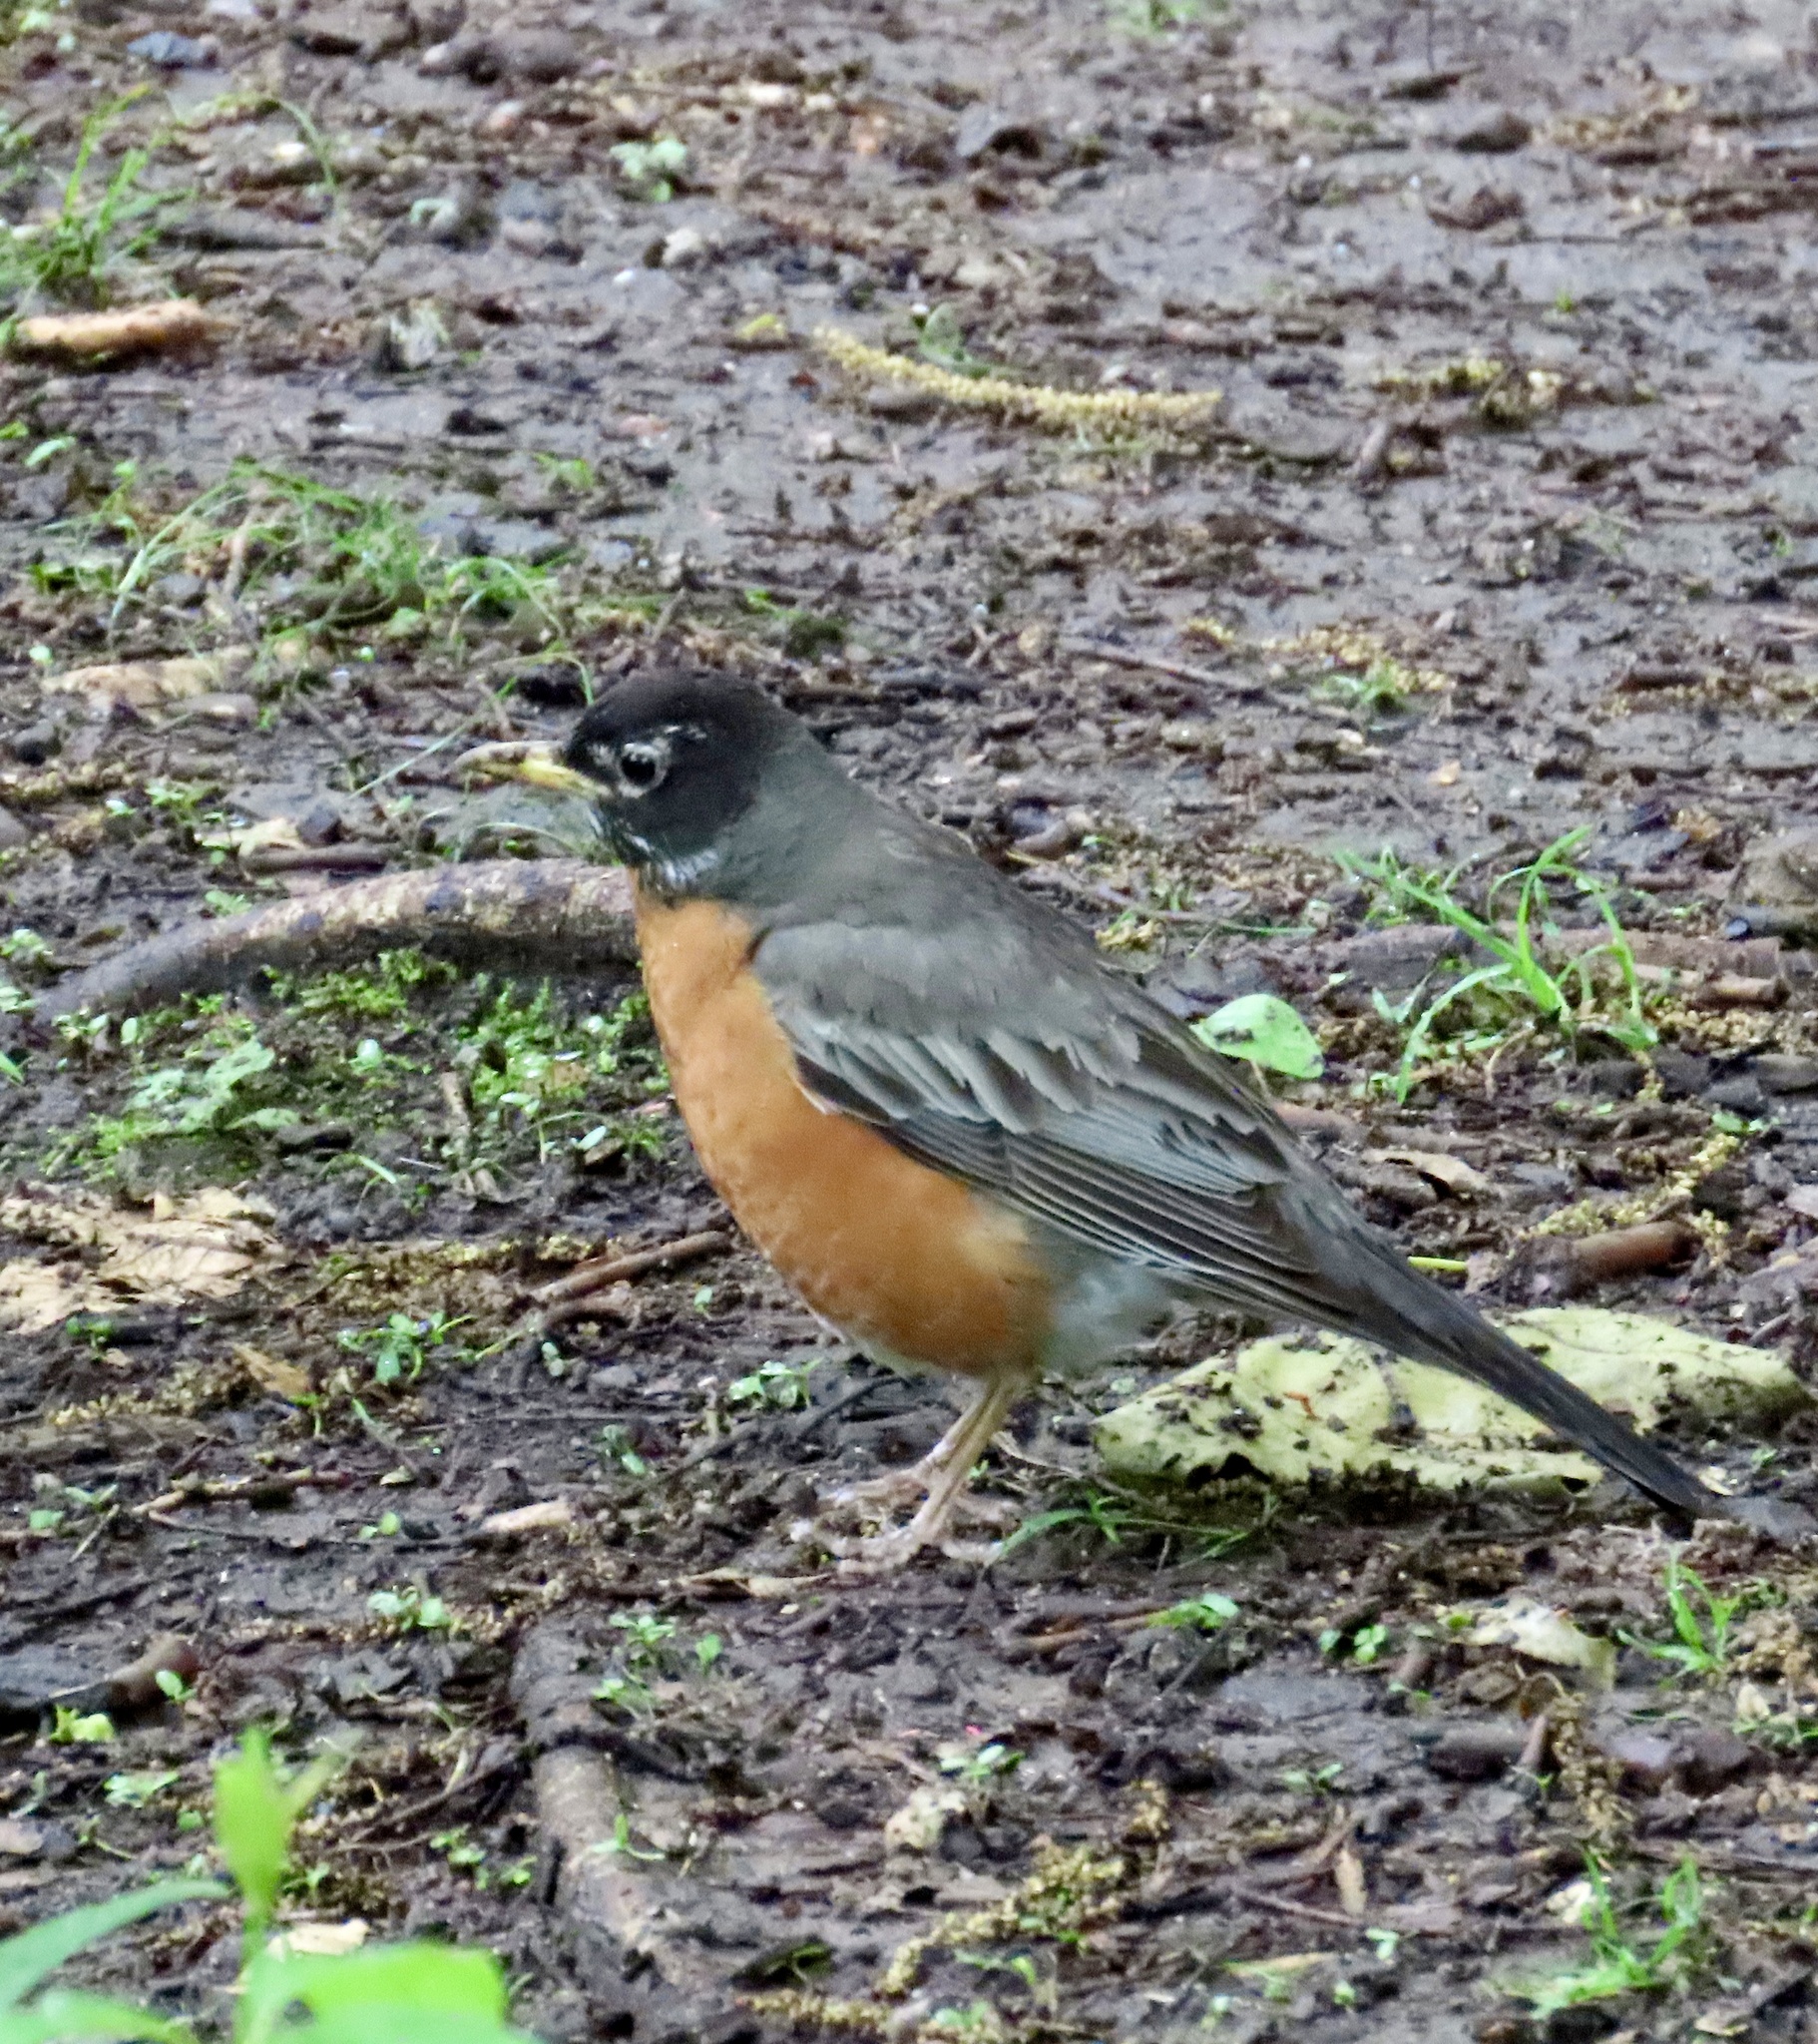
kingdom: Animalia
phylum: Chordata
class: Aves
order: Passeriformes
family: Turdidae
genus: Turdus
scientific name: Turdus migratorius
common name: American robin
